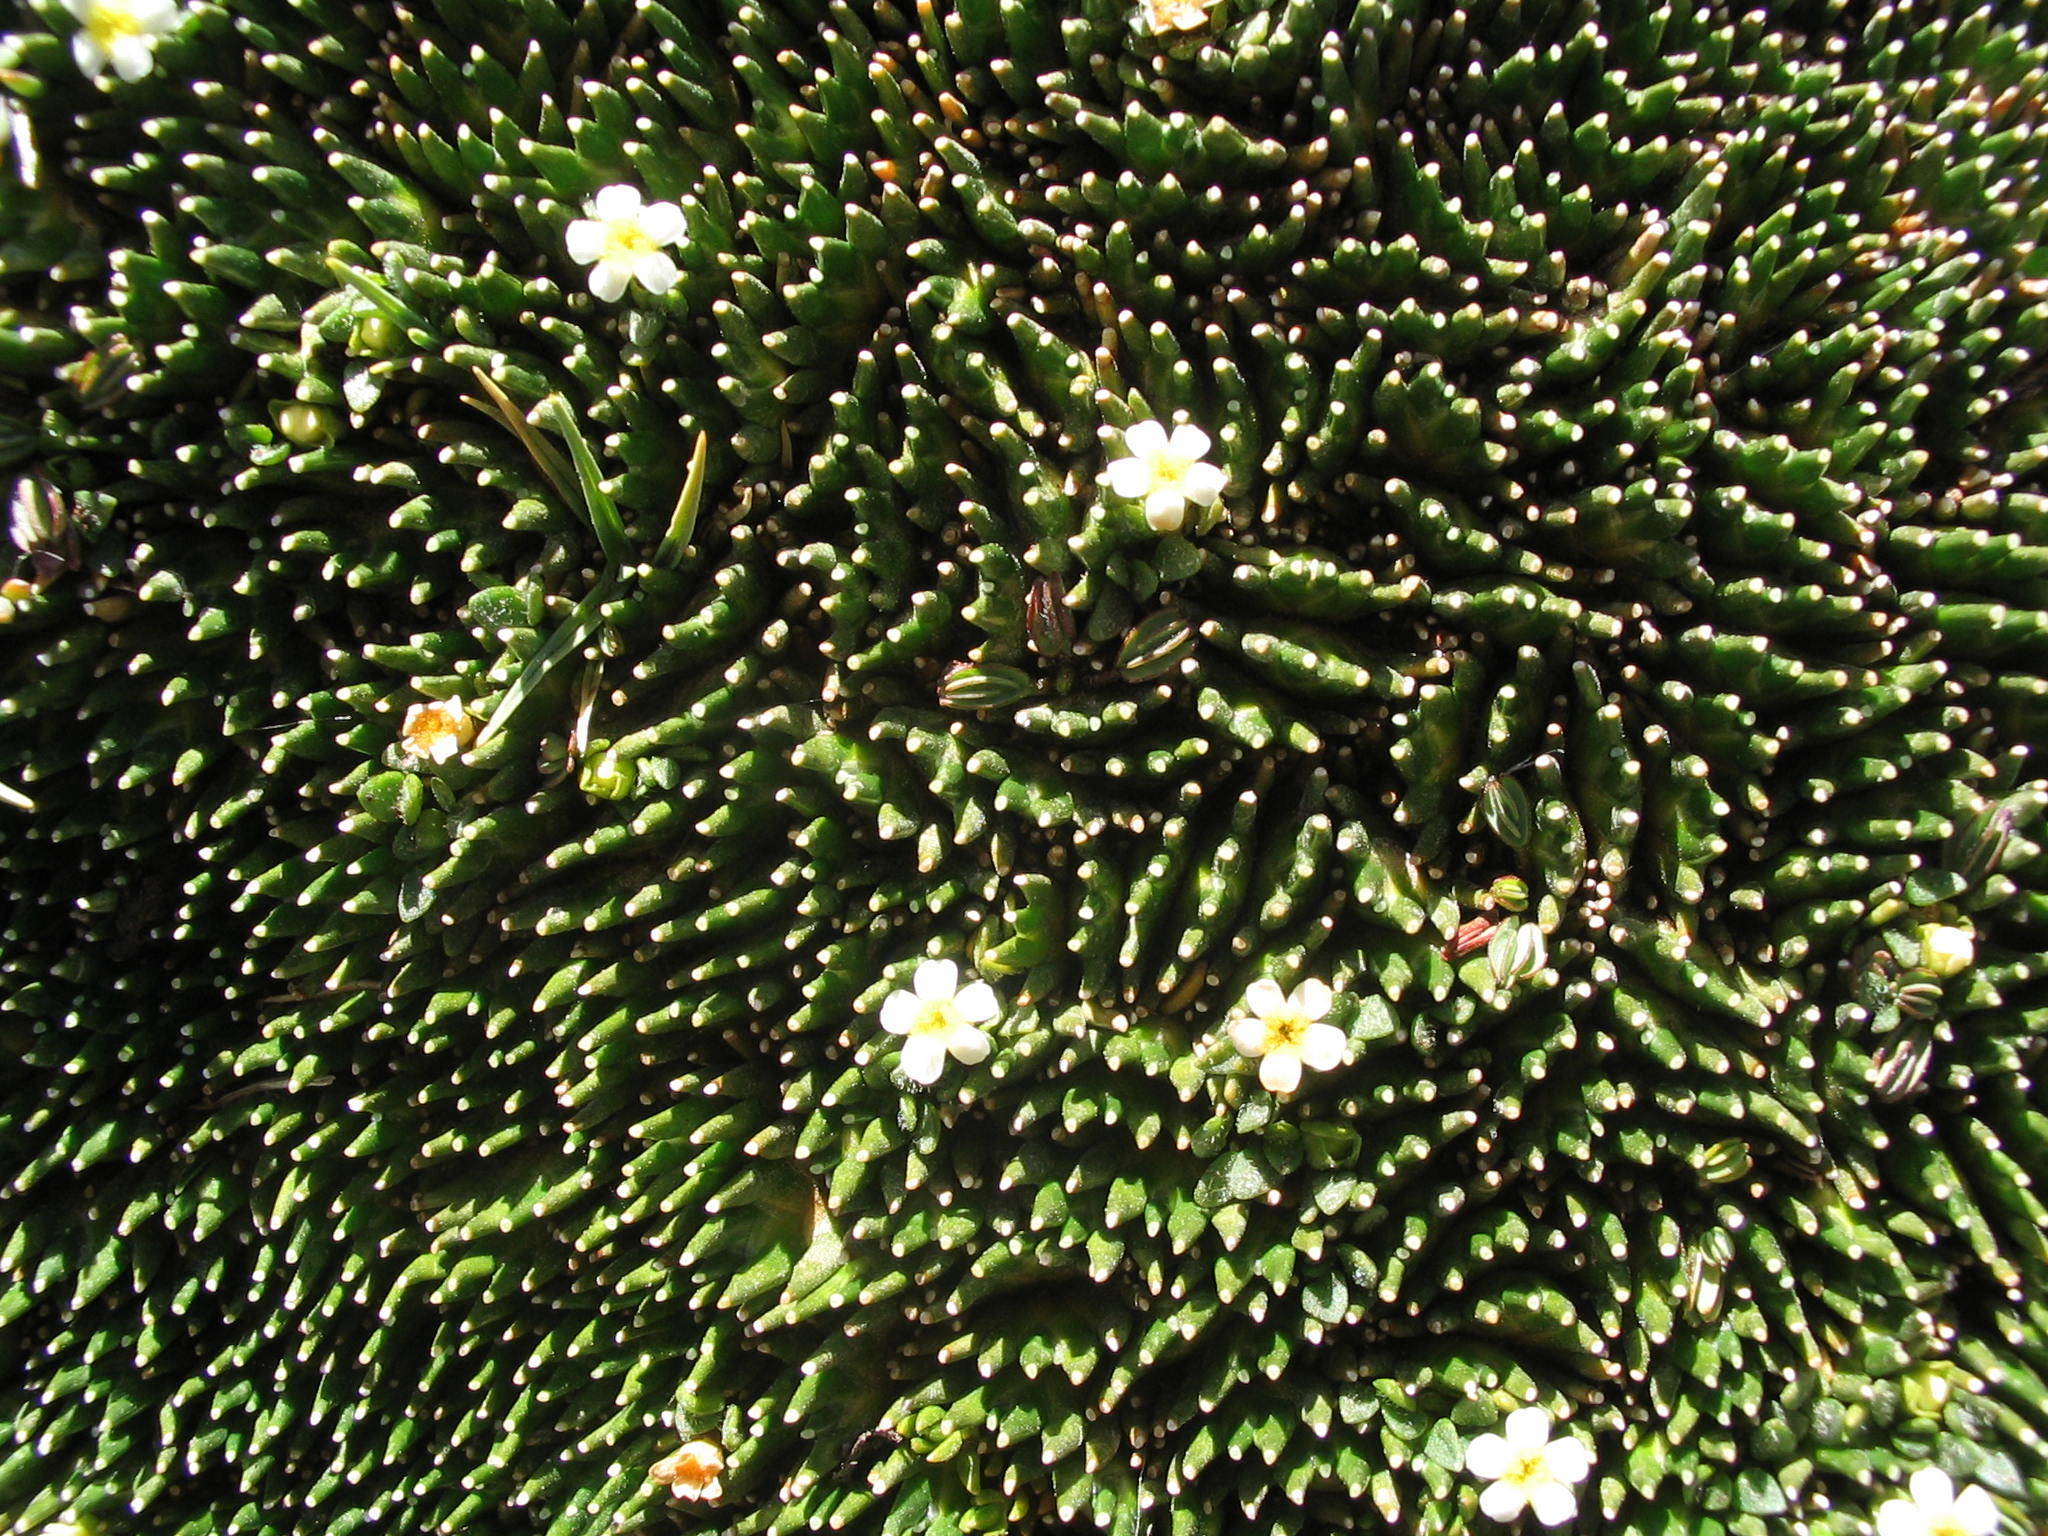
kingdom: Plantae
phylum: Tracheophyta
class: Magnoliopsida
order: Rosales
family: Rosaceae
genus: Lachemilla
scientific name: Lachemilla diplophylla
